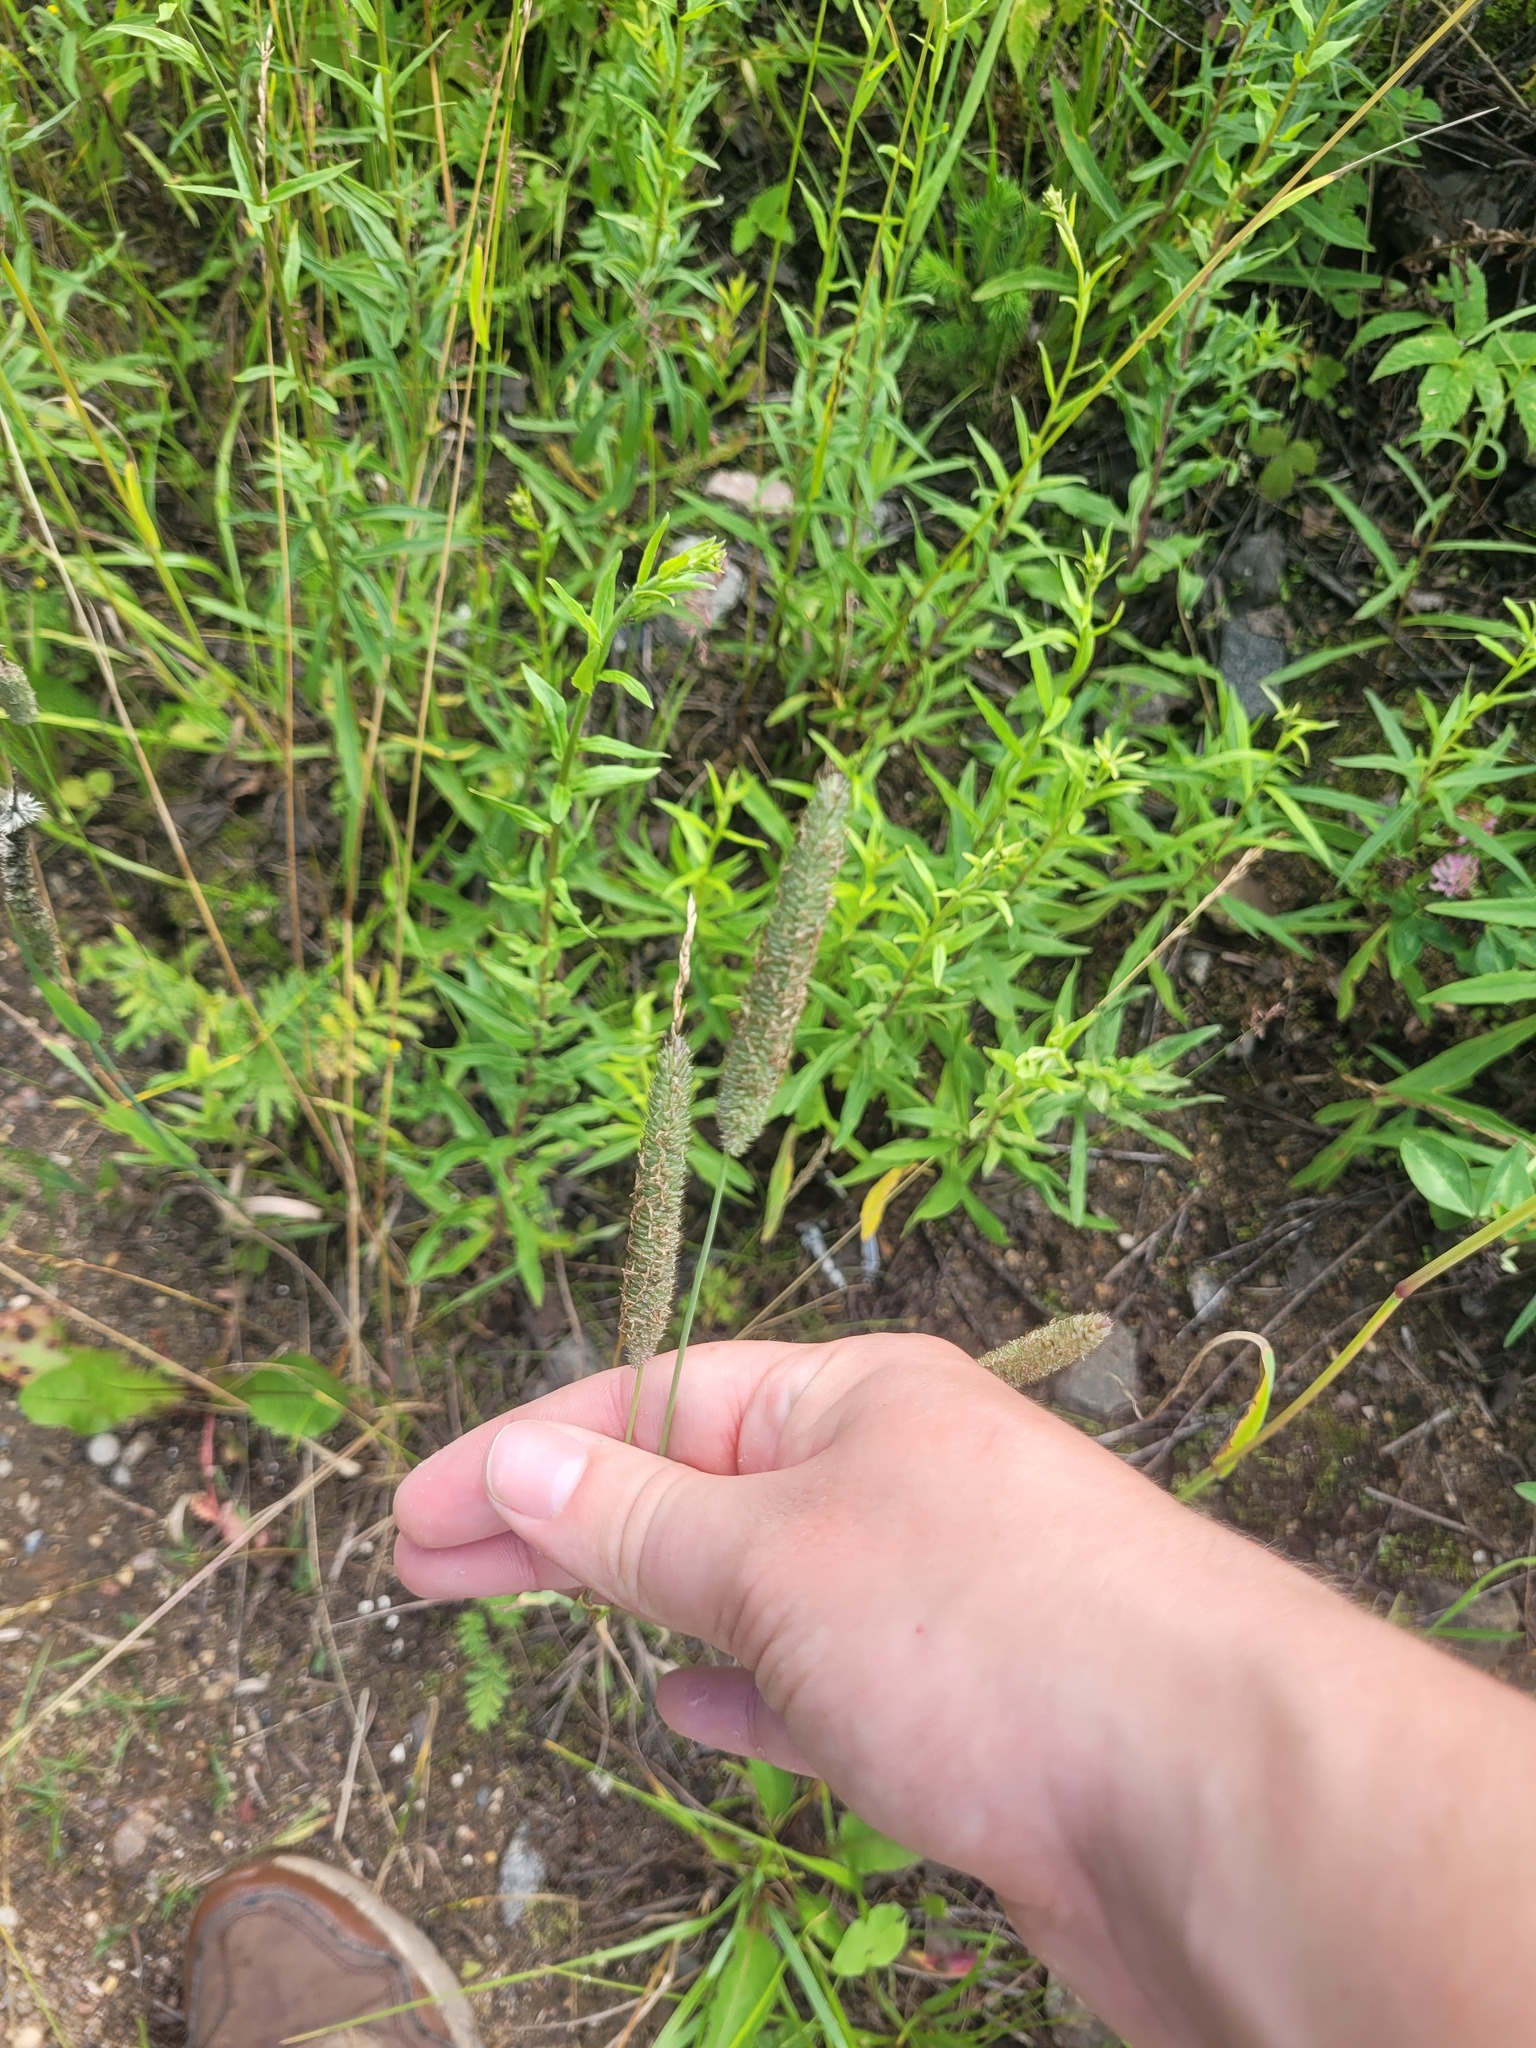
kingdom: Plantae
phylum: Tracheophyta
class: Liliopsida
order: Poales
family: Poaceae
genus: Phleum
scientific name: Phleum pratense
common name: Timothy grass
